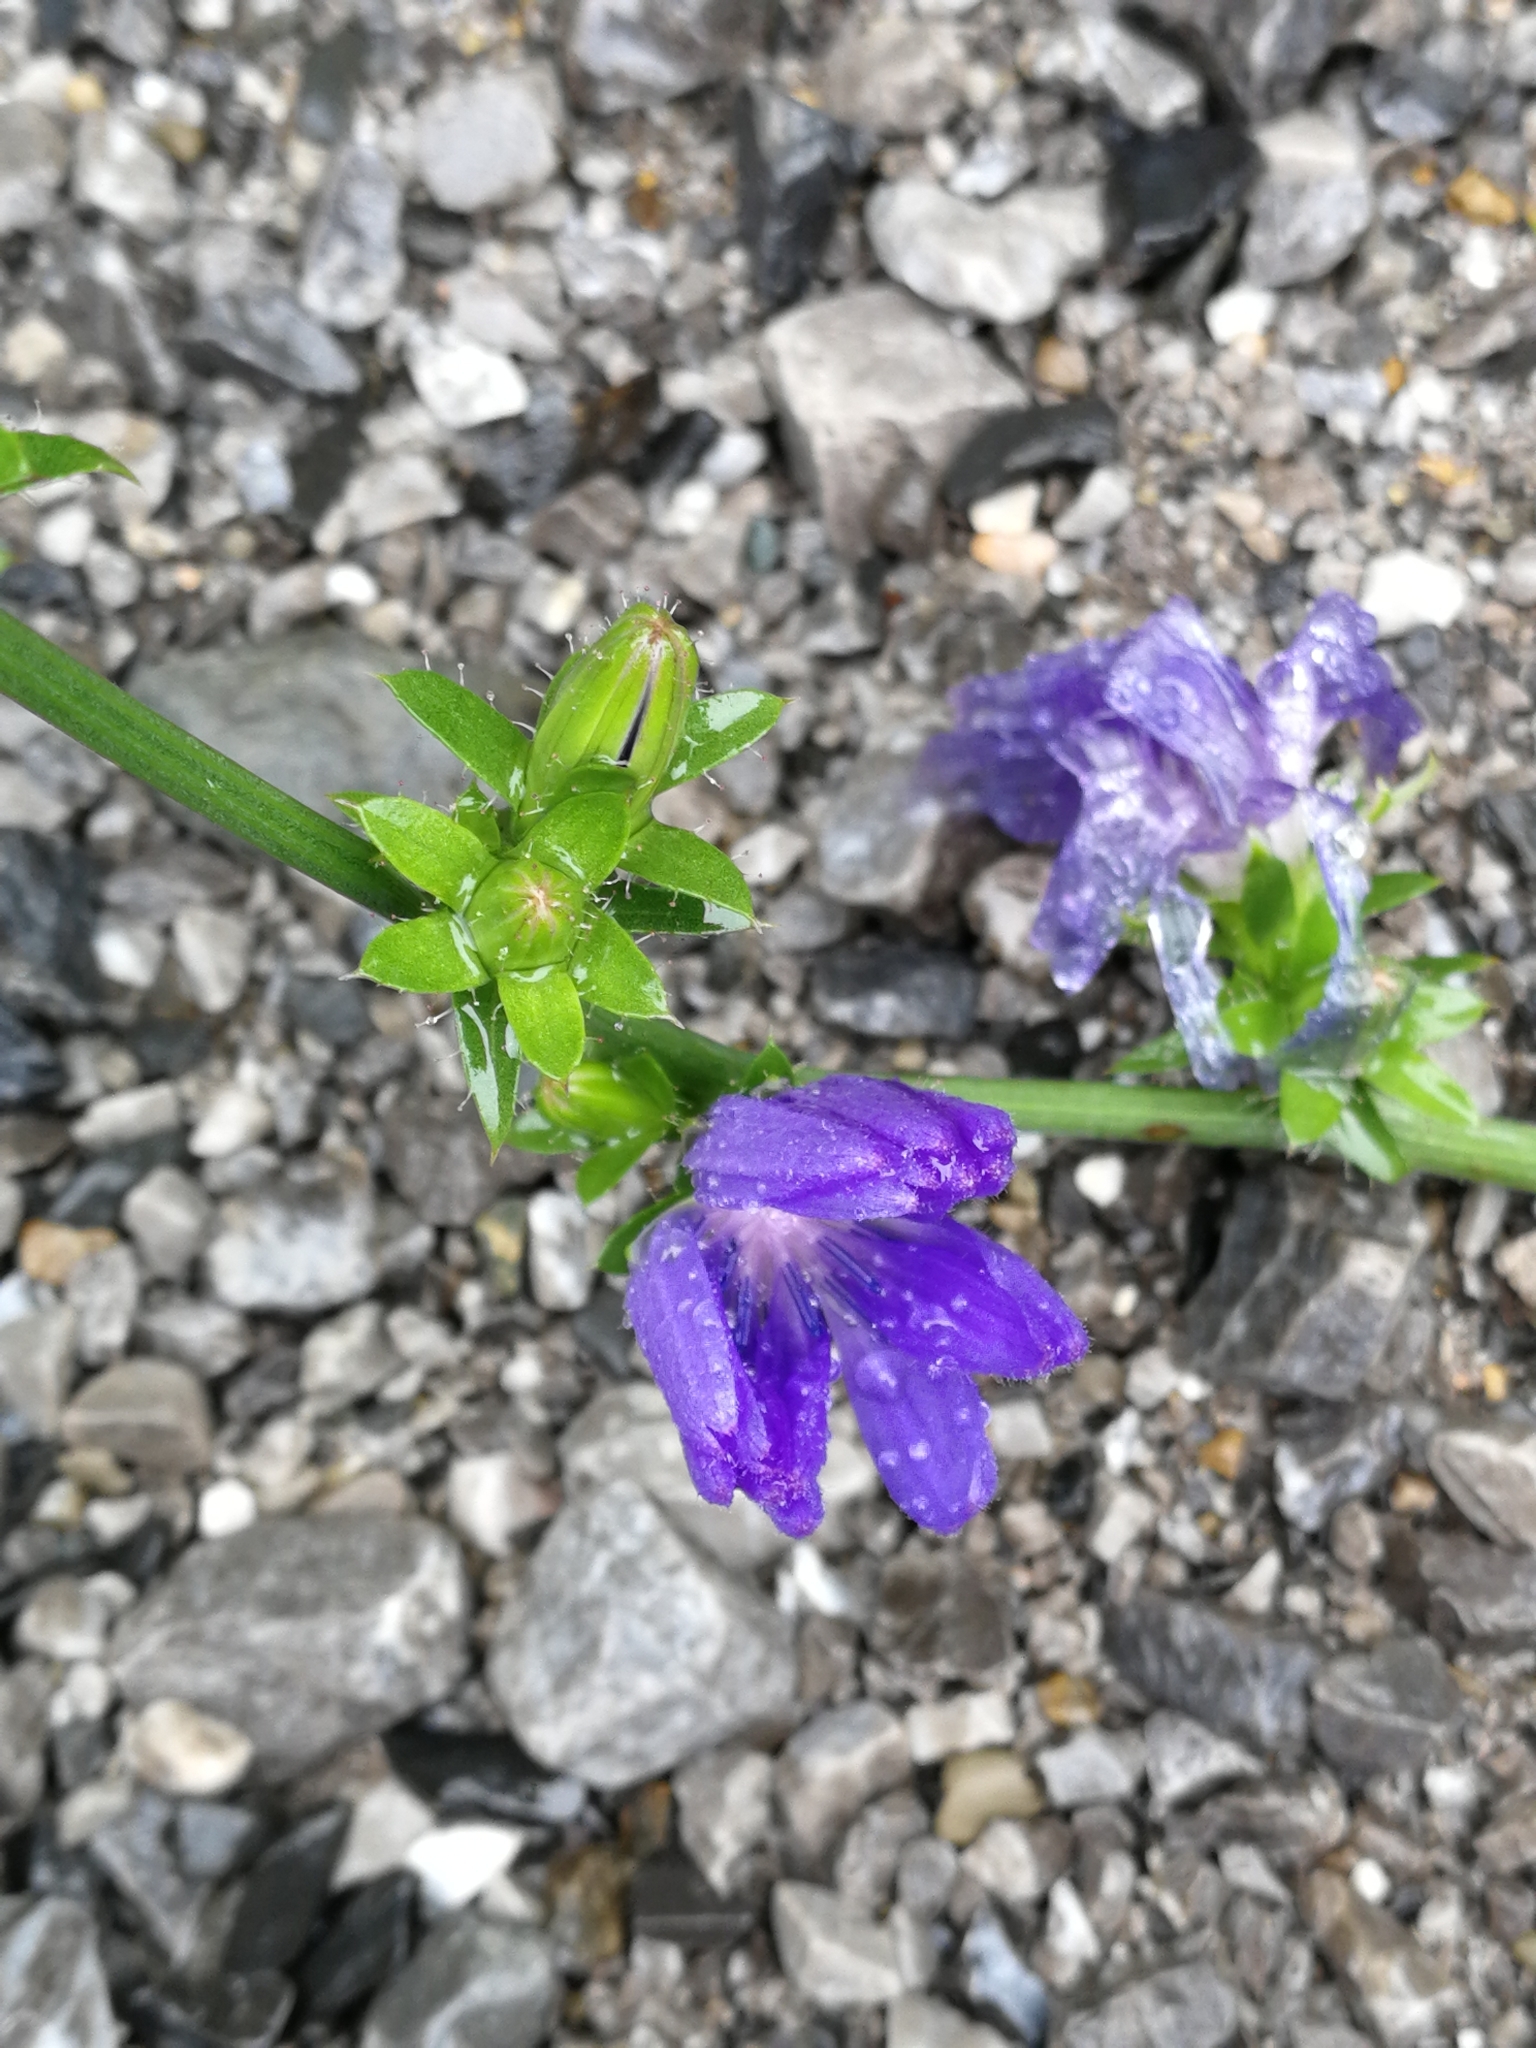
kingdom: Plantae
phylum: Tracheophyta
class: Magnoliopsida
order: Asterales
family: Asteraceae
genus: Cichorium
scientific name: Cichorium intybus
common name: Chicory
